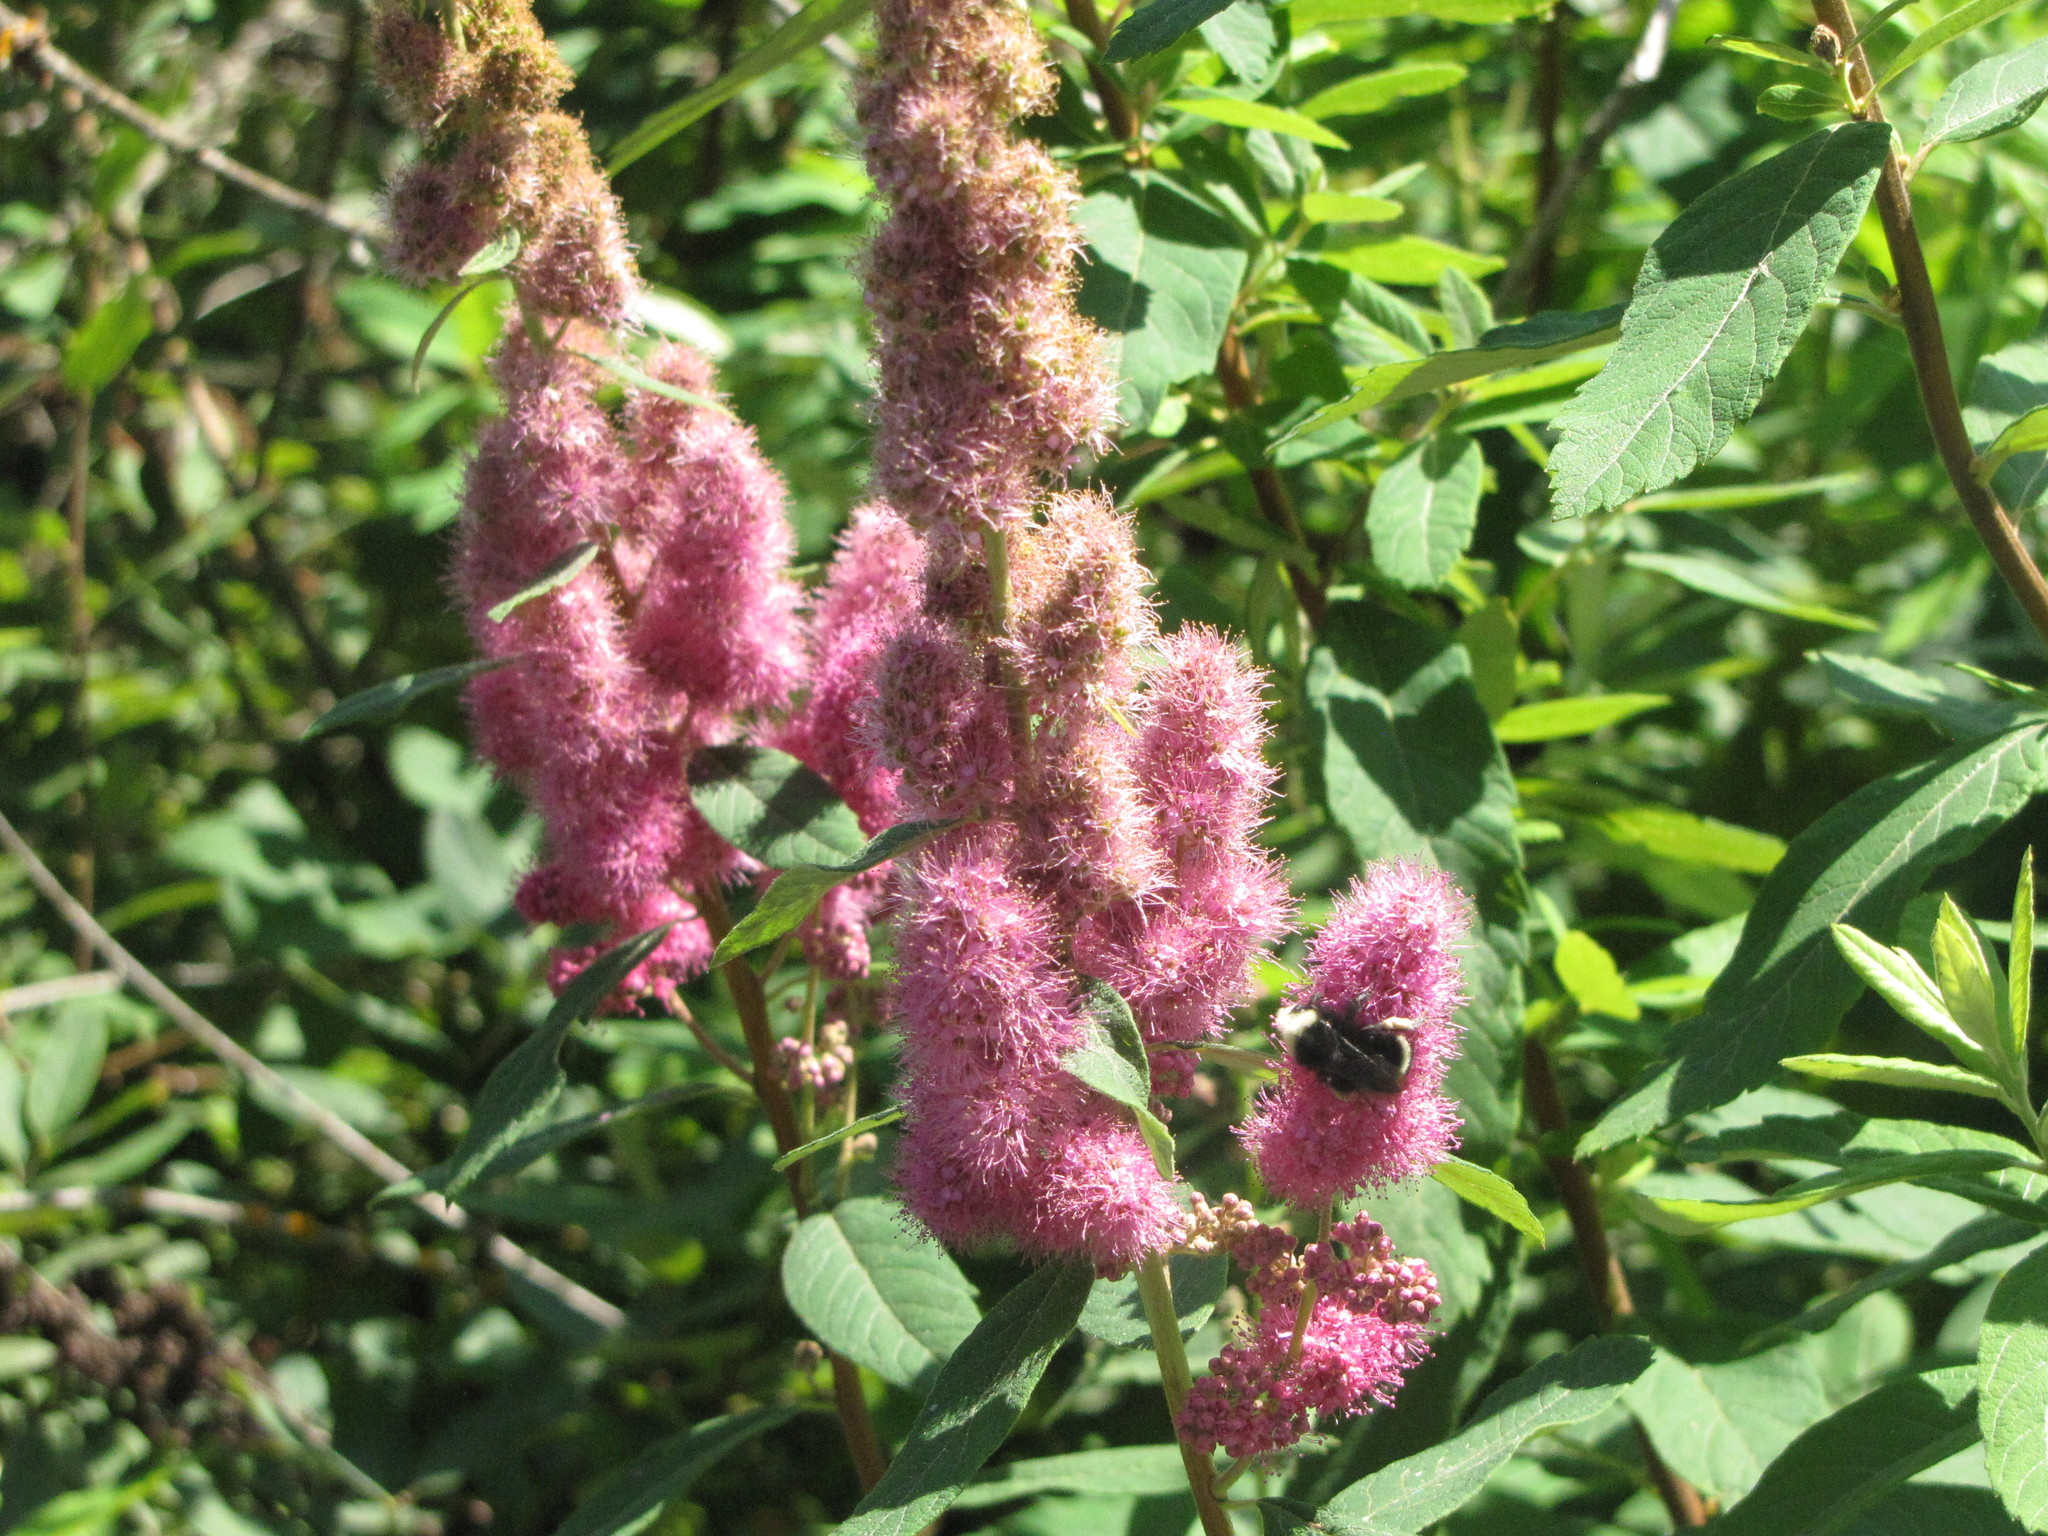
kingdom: Plantae
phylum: Tracheophyta
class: Magnoliopsida
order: Rosales
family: Rosaceae
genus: Spiraea
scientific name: Spiraea douglasii
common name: Steeplebush
